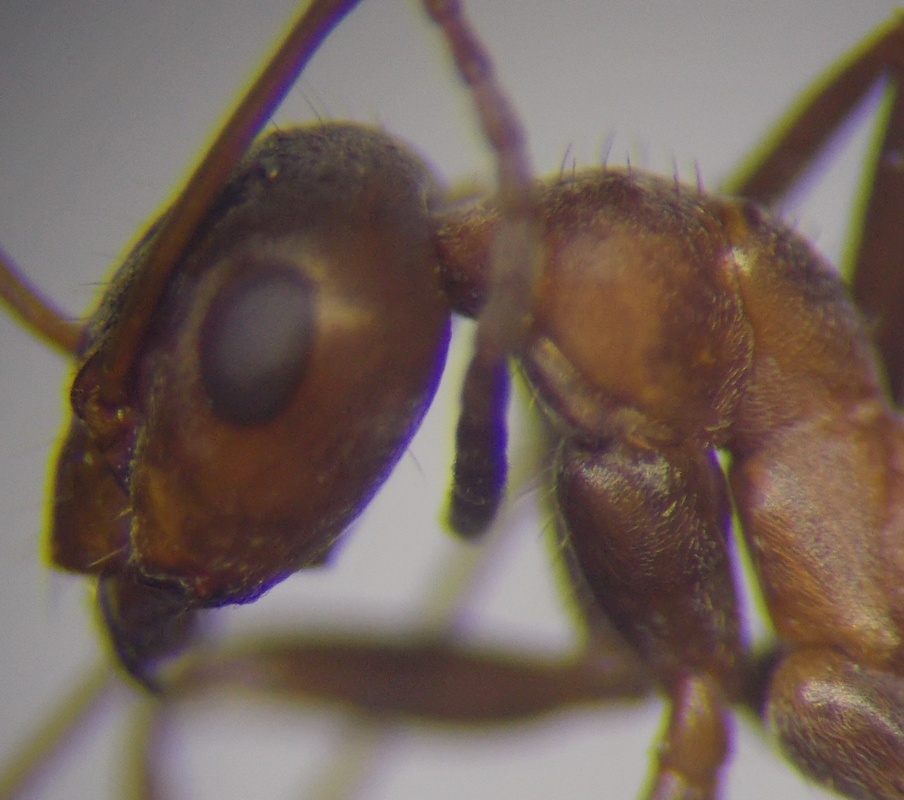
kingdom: Animalia
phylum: Arthropoda
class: Insecta
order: Hymenoptera
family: Formicidae
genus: Formica
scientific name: Formica subpilosa
